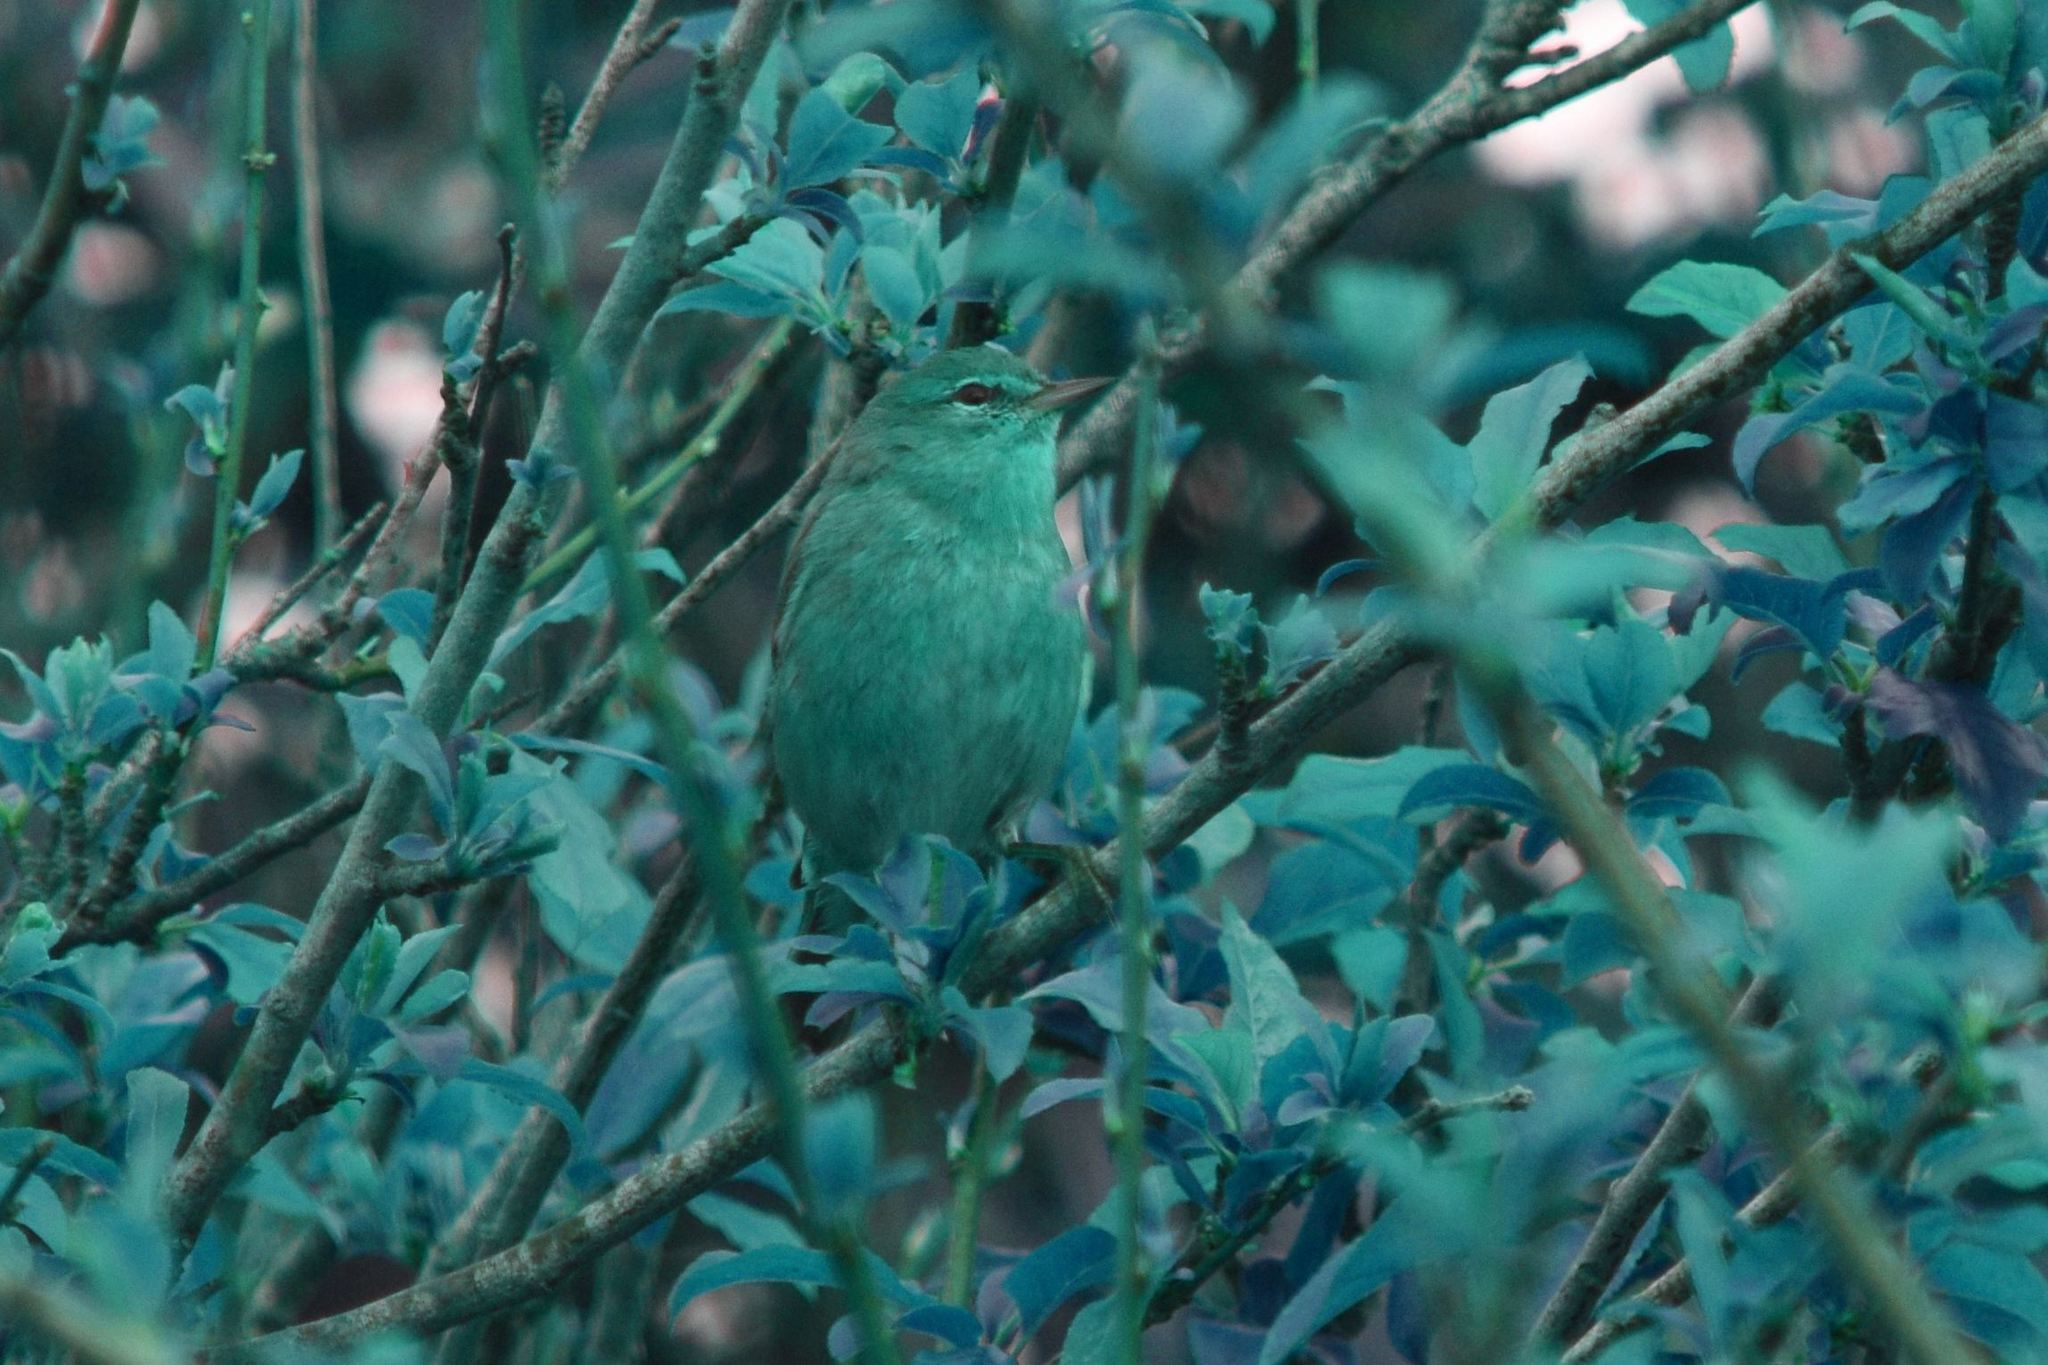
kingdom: Animalia
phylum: Chordata
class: Aves
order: Passeriformes
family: Parulidae
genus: Leiothlypis
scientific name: Leiothlypis celata
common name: Orange-crowned warbler
